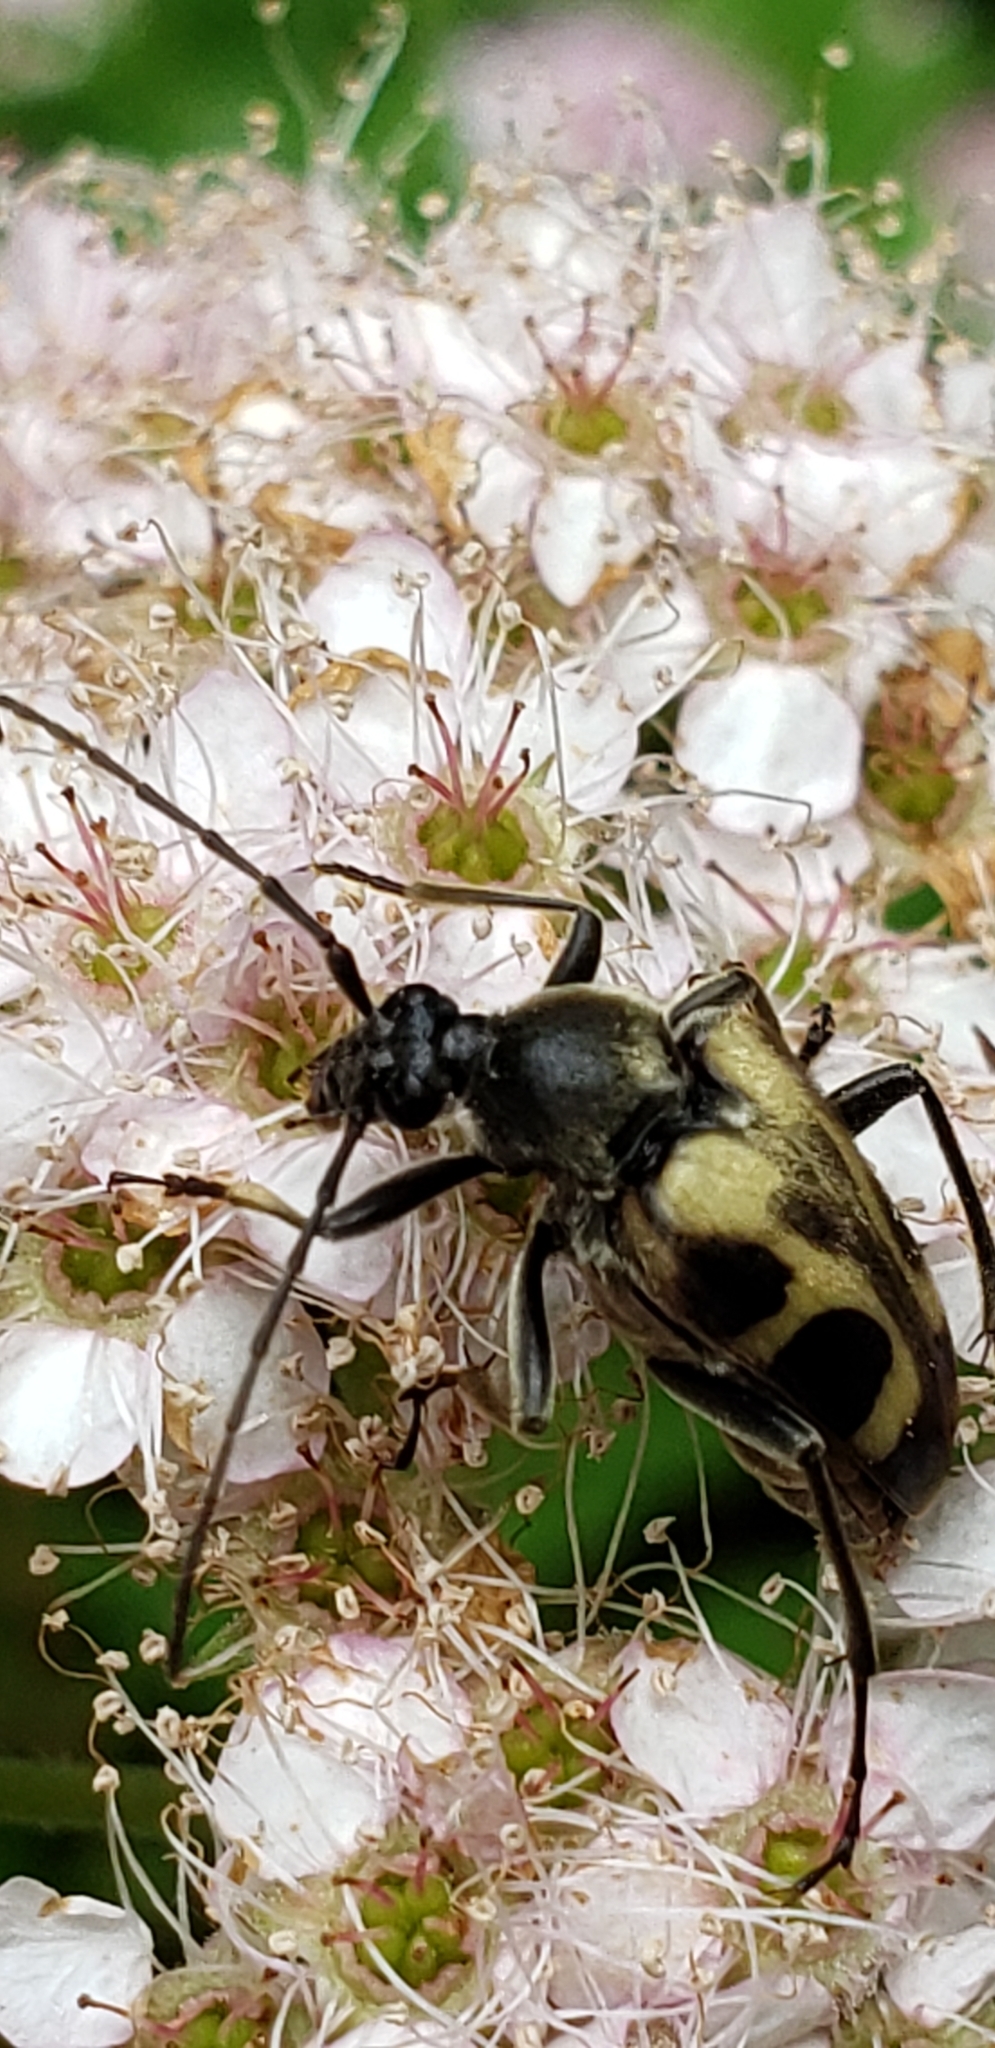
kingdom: Animalia
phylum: Arthropoda
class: Insecta
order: Coleoptera
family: Cerambycidae
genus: Judolia
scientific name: Judolia cordifera
